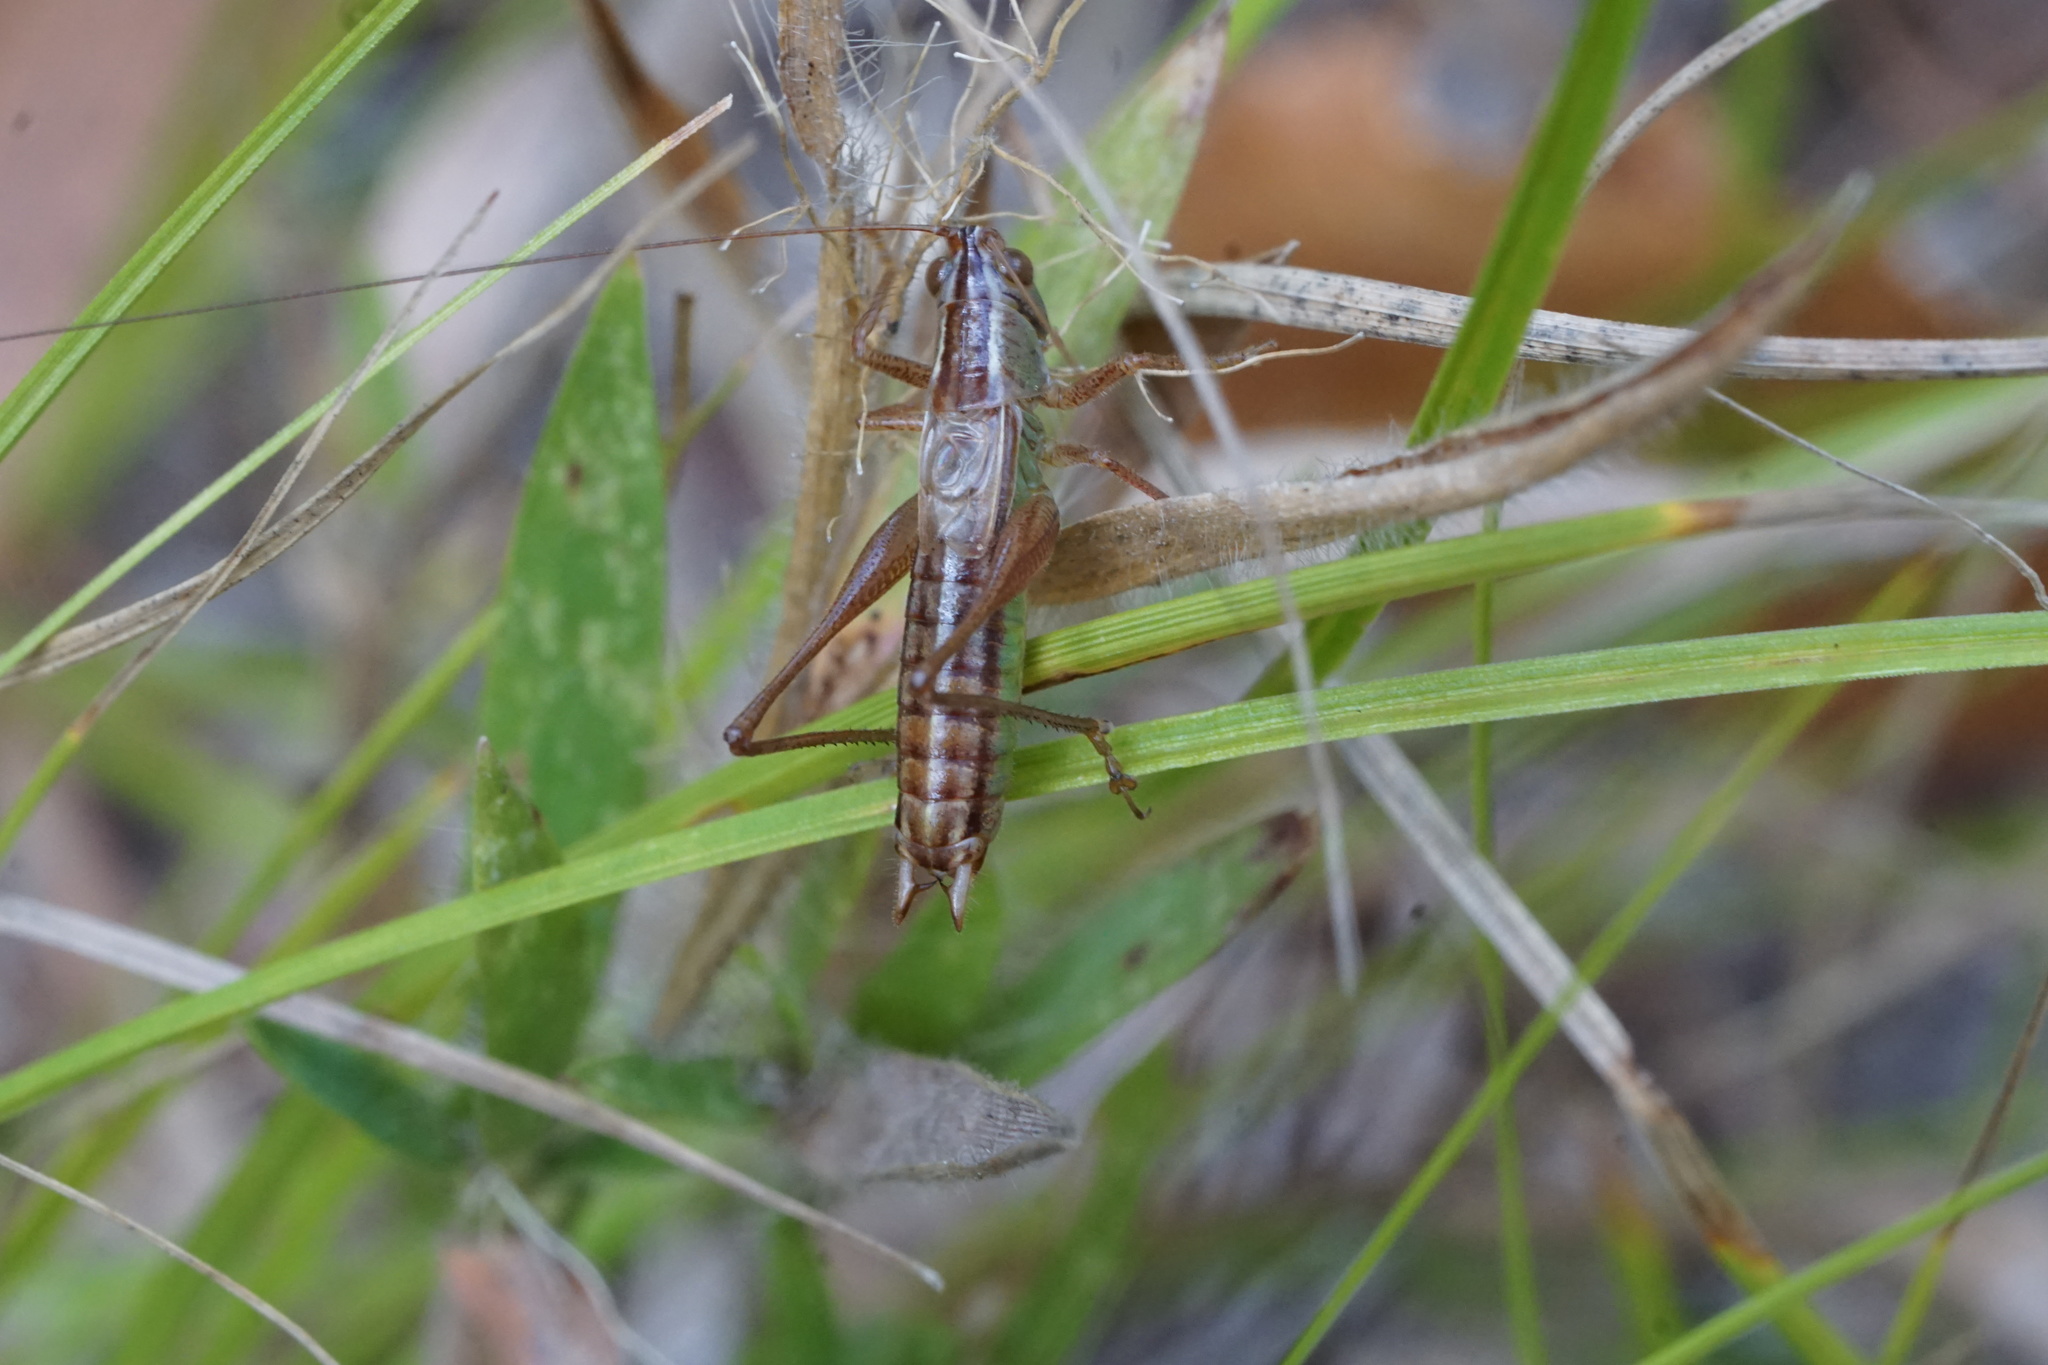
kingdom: Animalia
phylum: Arthropoda
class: Insecta
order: Orthoptera
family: Tettigoniidae
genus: Conocephalus
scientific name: Conocephalus saltans
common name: Prairie meadow katydid
